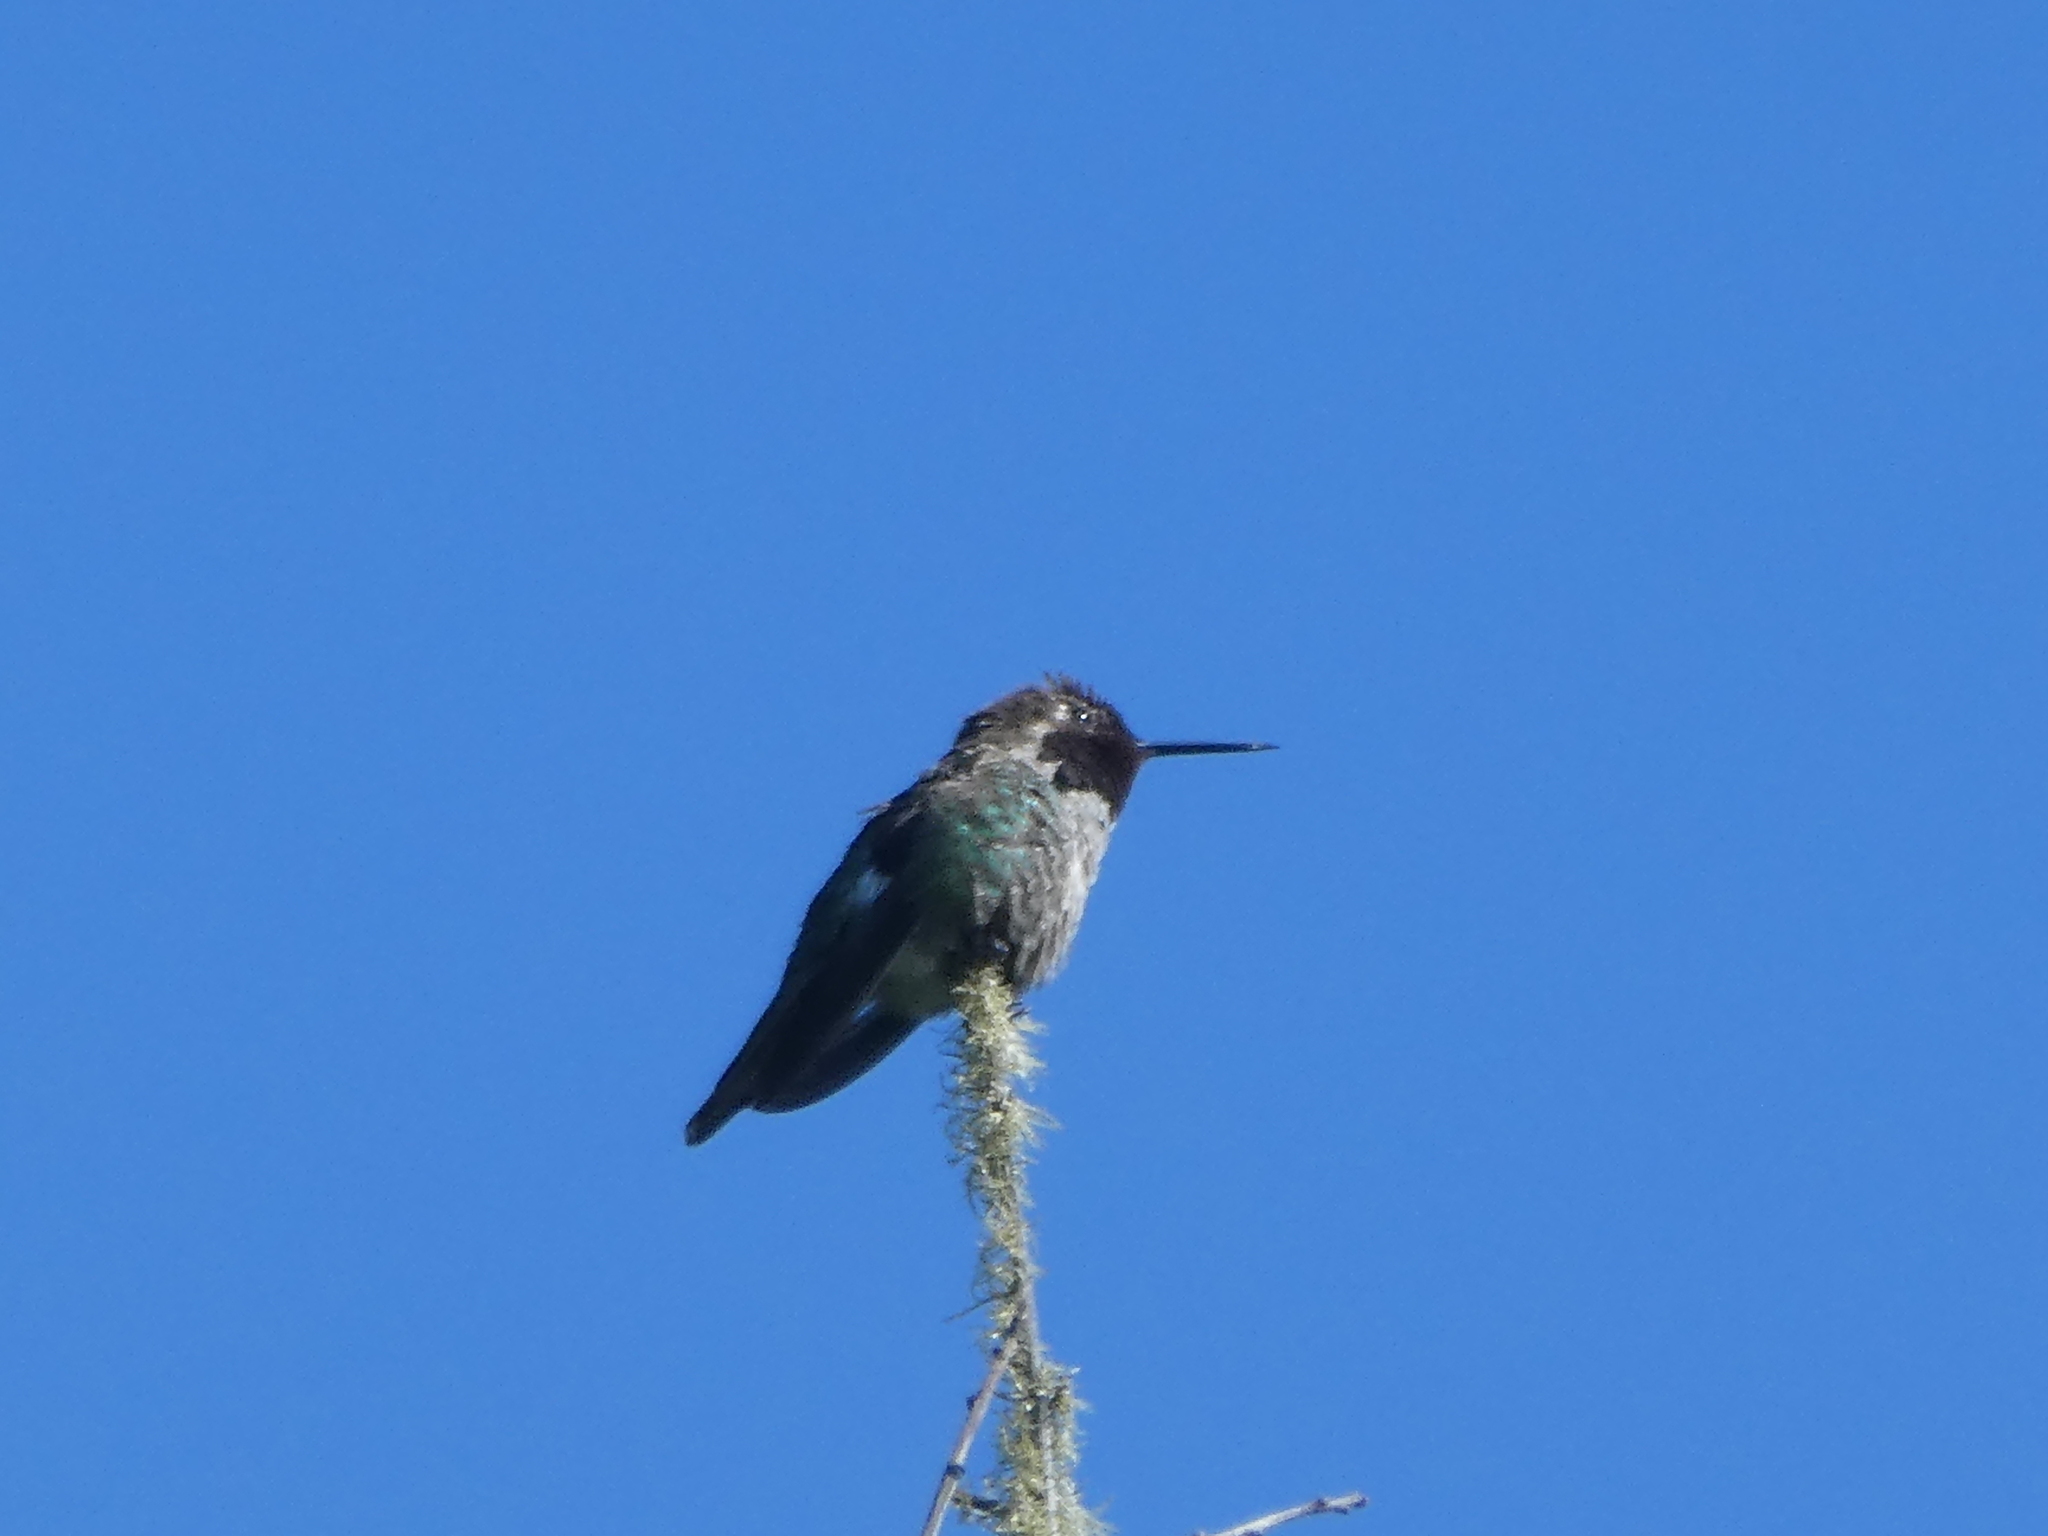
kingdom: Animalia
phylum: Chordata
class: Aves
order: Apodiformes
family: Trochilidae
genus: Calypte
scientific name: Calypte anna
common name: Anna's hummingbird
